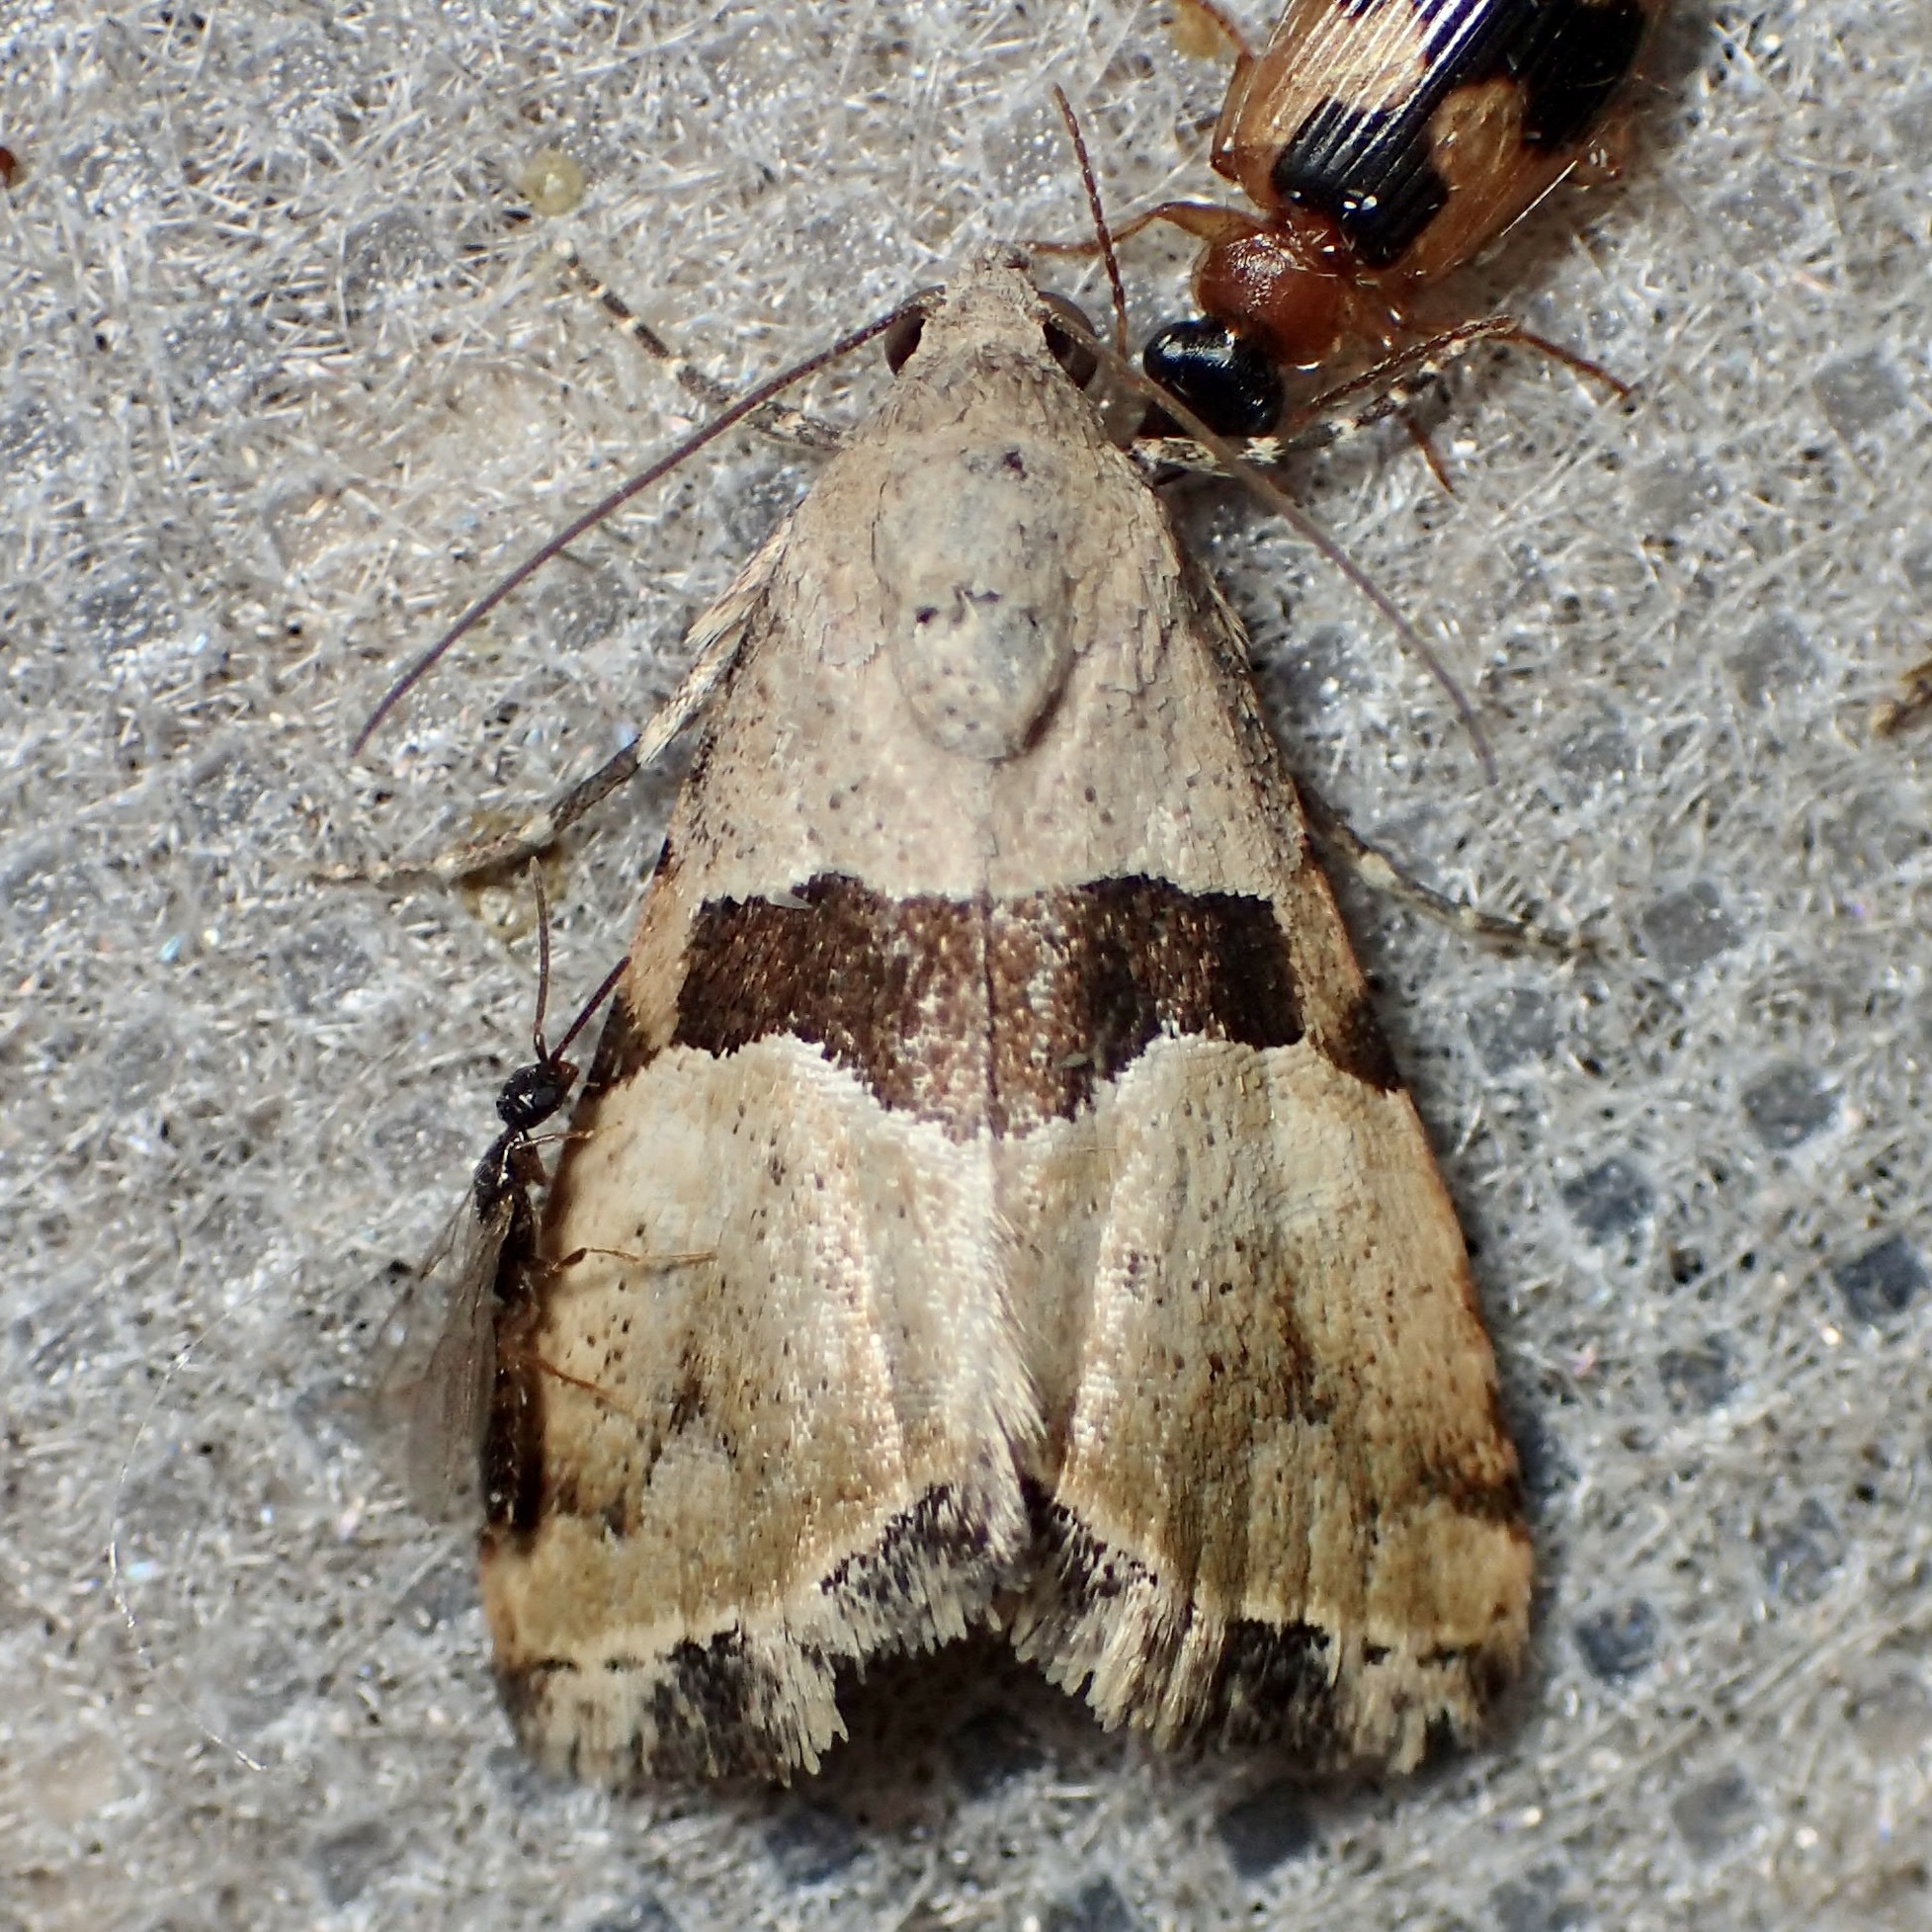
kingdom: Animalia
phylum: Arthropoda
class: Insecta
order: Lepidoptera
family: Noctuidae
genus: Cobubatha
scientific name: Cobubatha lixiva
